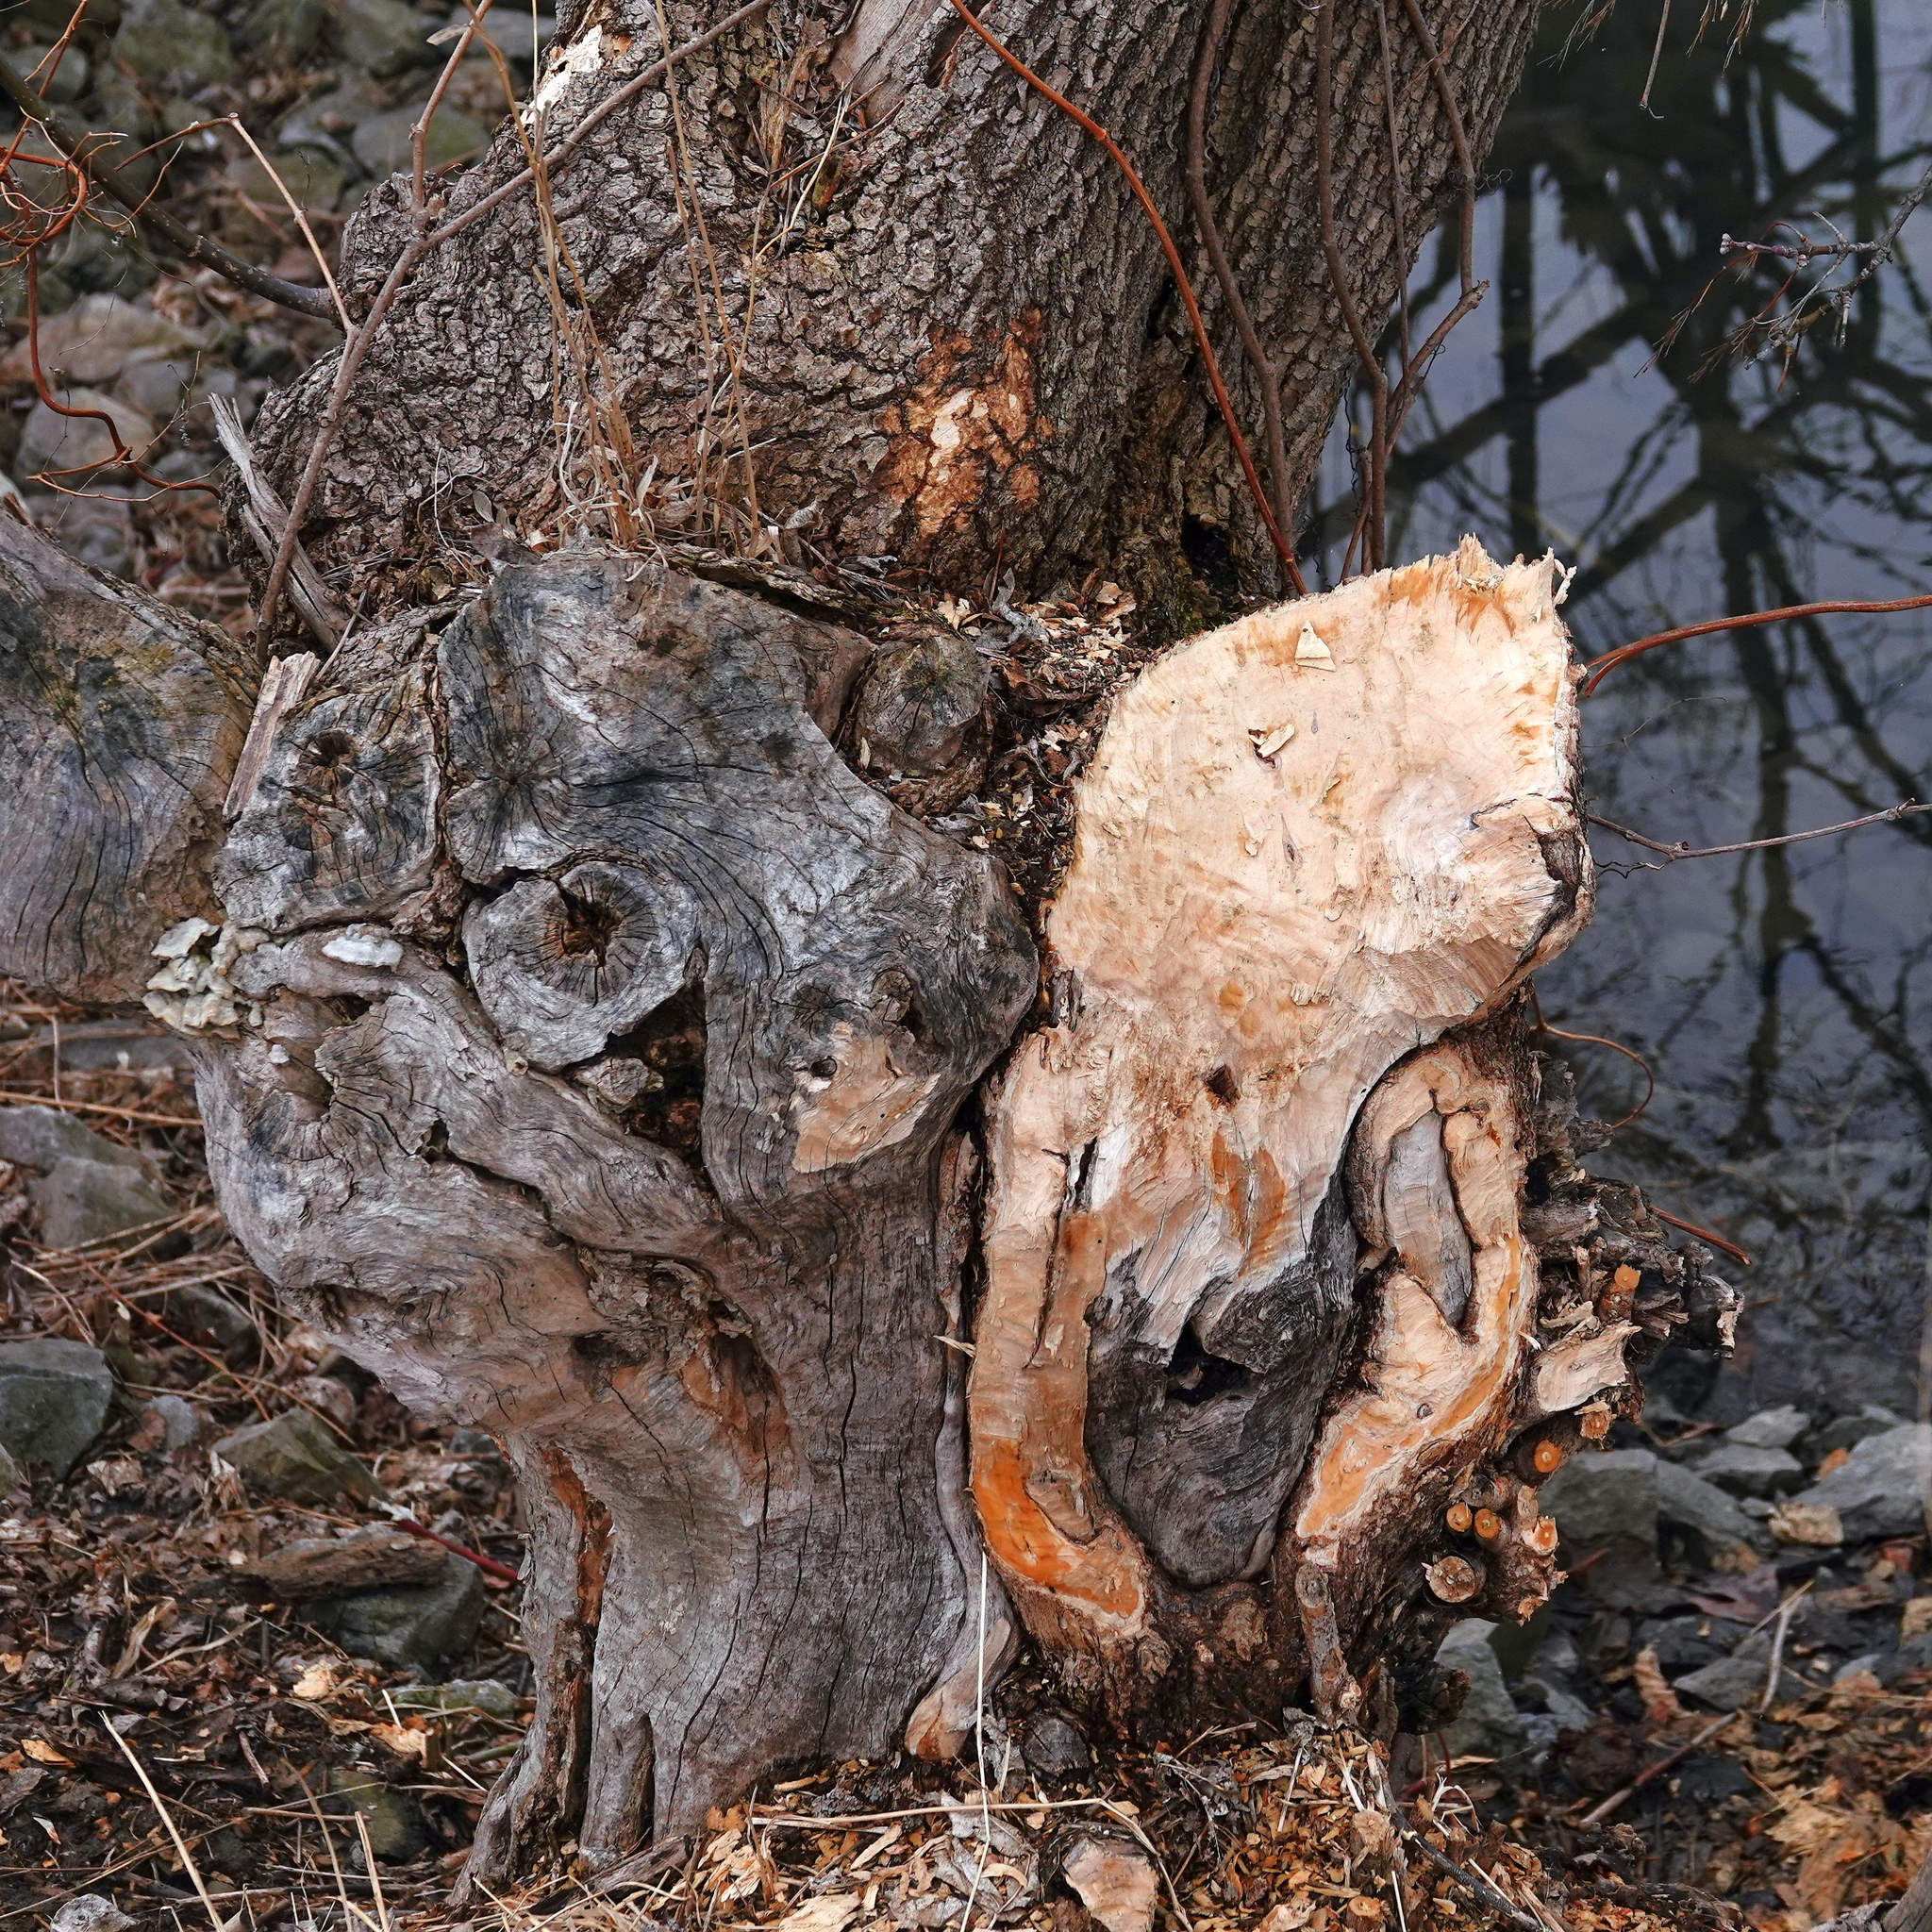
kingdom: Animalia
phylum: Chordata
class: Mammalia
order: Rodentia
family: Castoridae
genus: Castor
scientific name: Castor canadensis
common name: American beaver
